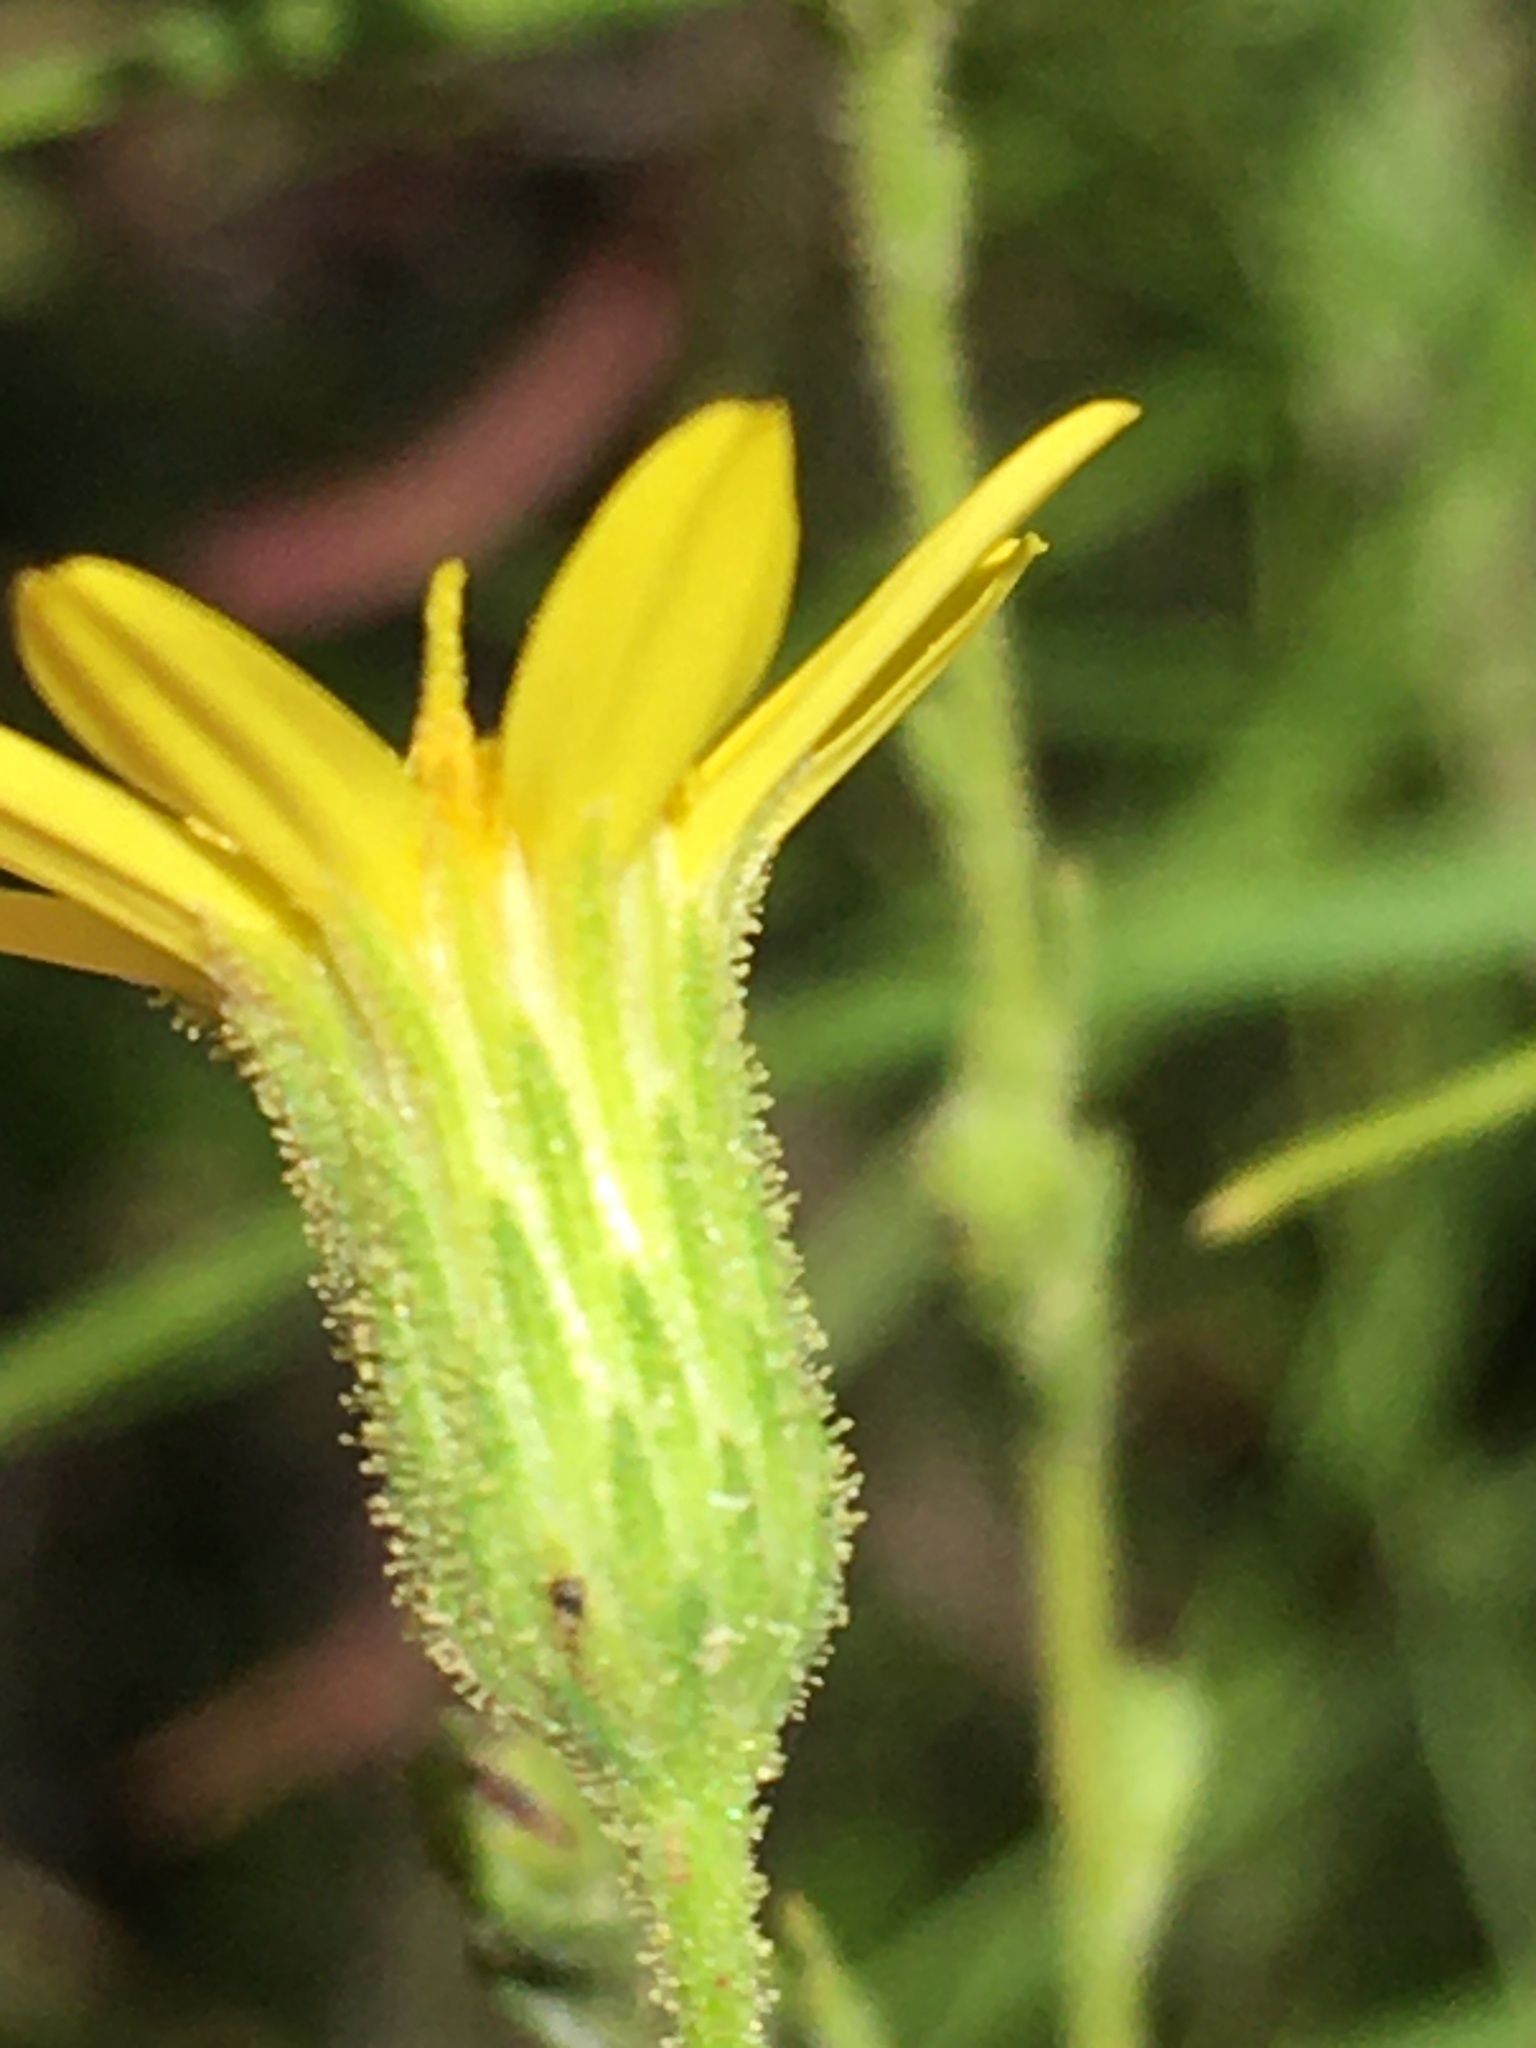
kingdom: Plantae
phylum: Tracheophyta
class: Magnoliopsida
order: Asterales
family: Asteraceae
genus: Pityopsis
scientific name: Pityopsis aspera
